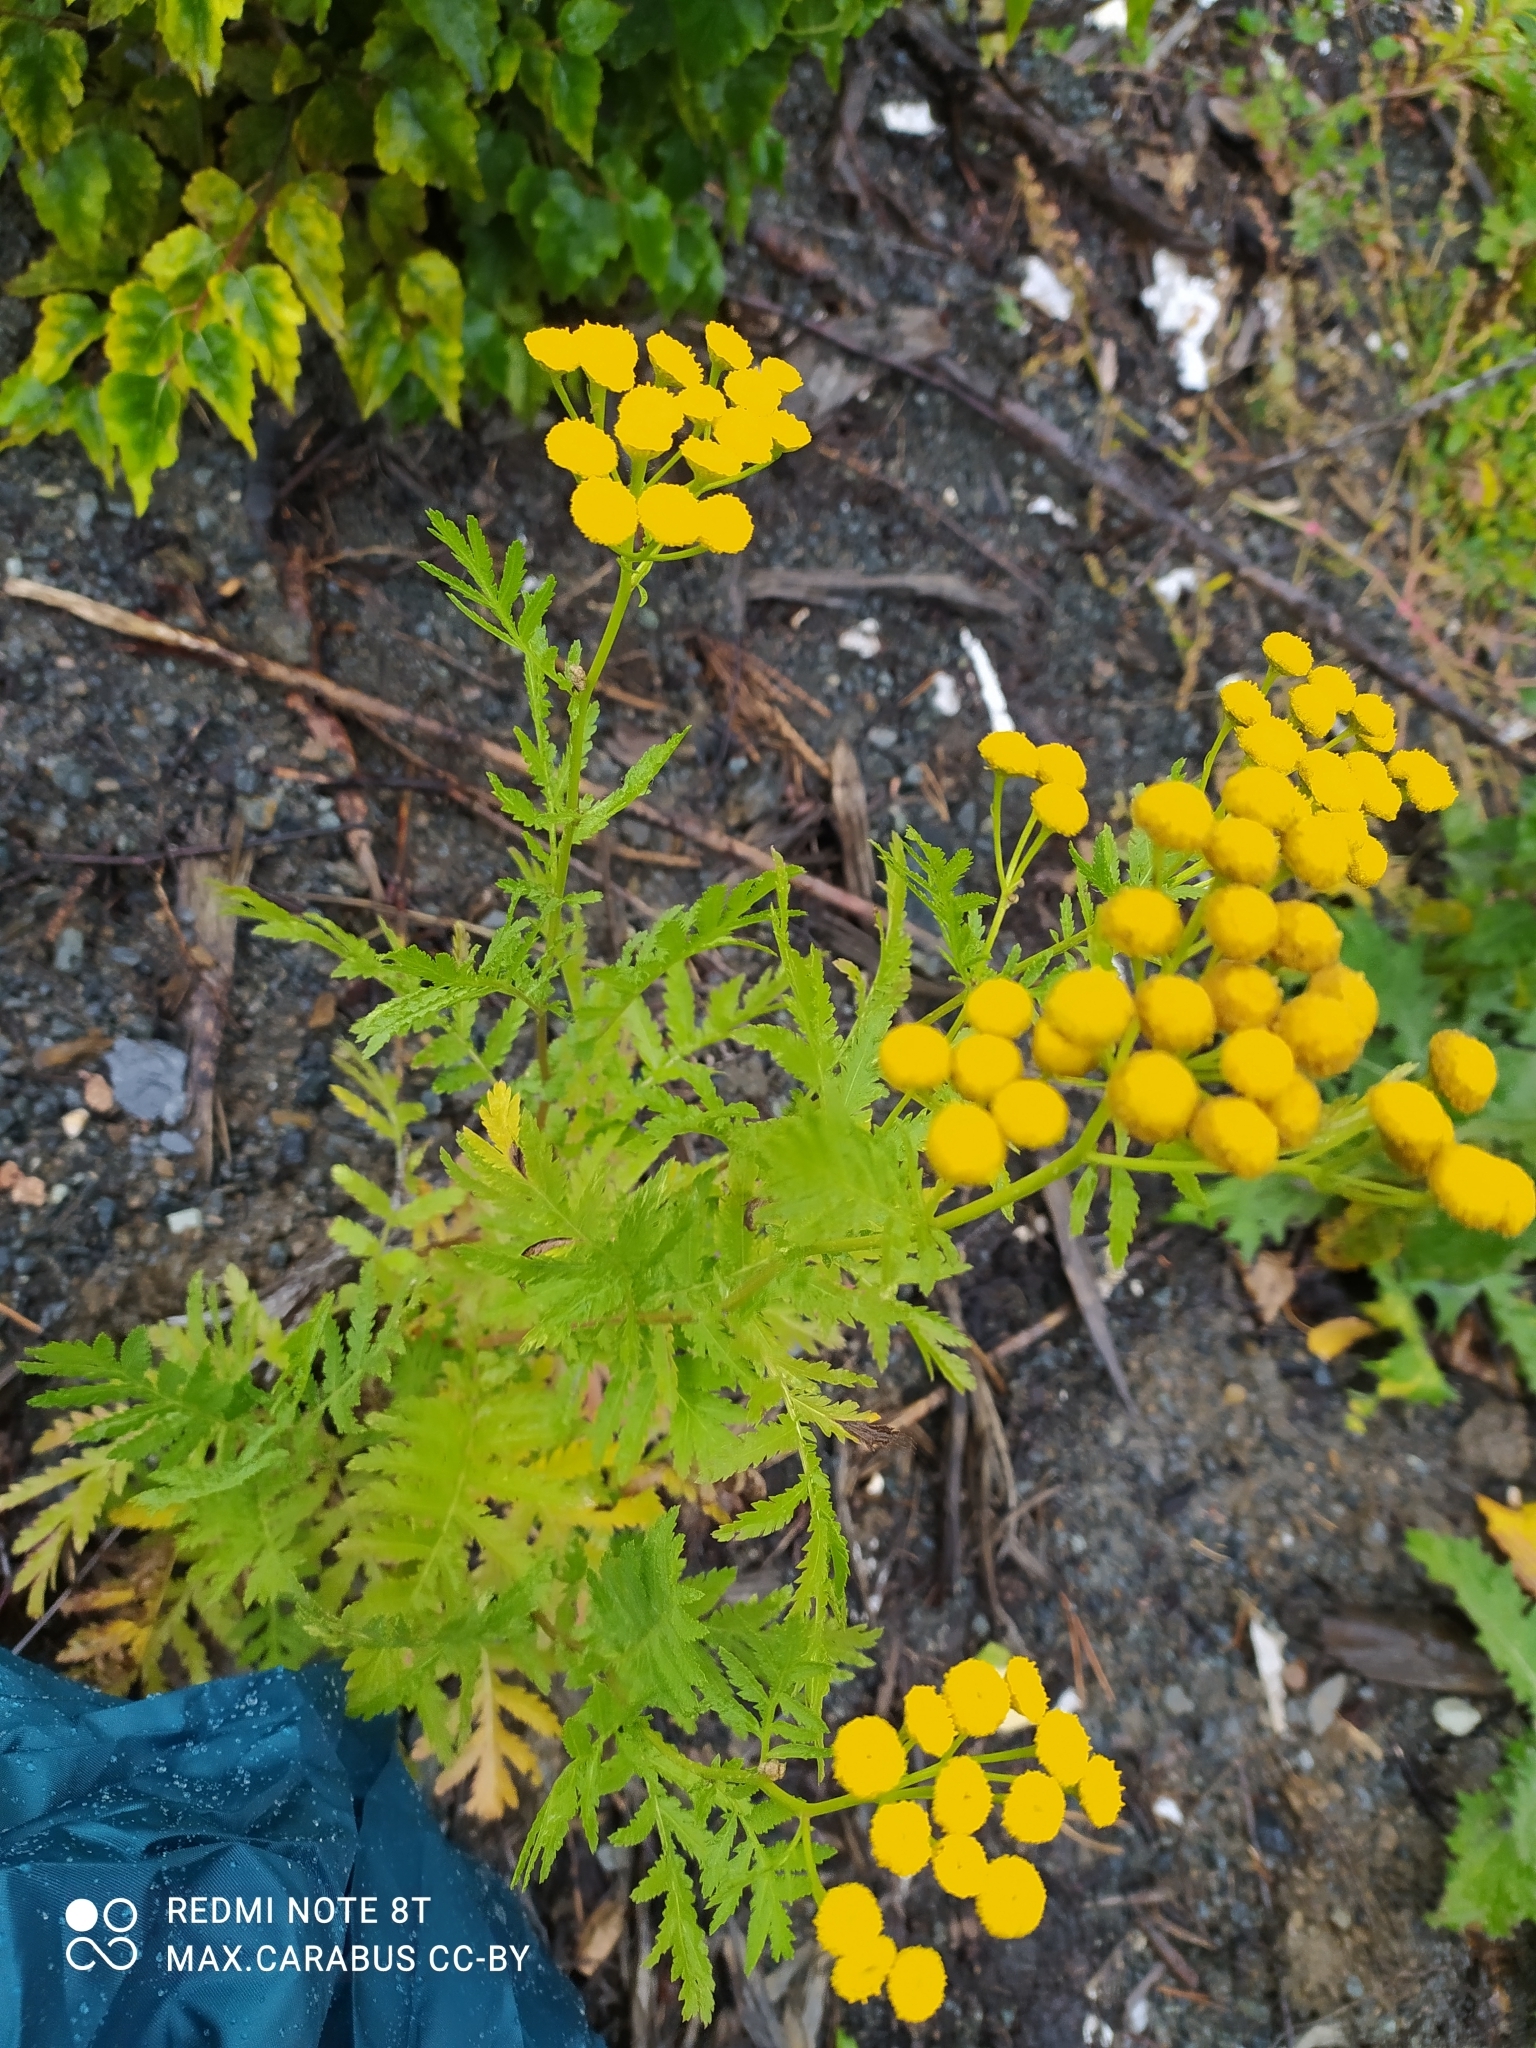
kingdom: Plantae
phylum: Tracheophyta
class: Magnoliopsida
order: Asterales
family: Asteraceae
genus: Tanacetum
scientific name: Tanacetum vulgare
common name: Common tansy
